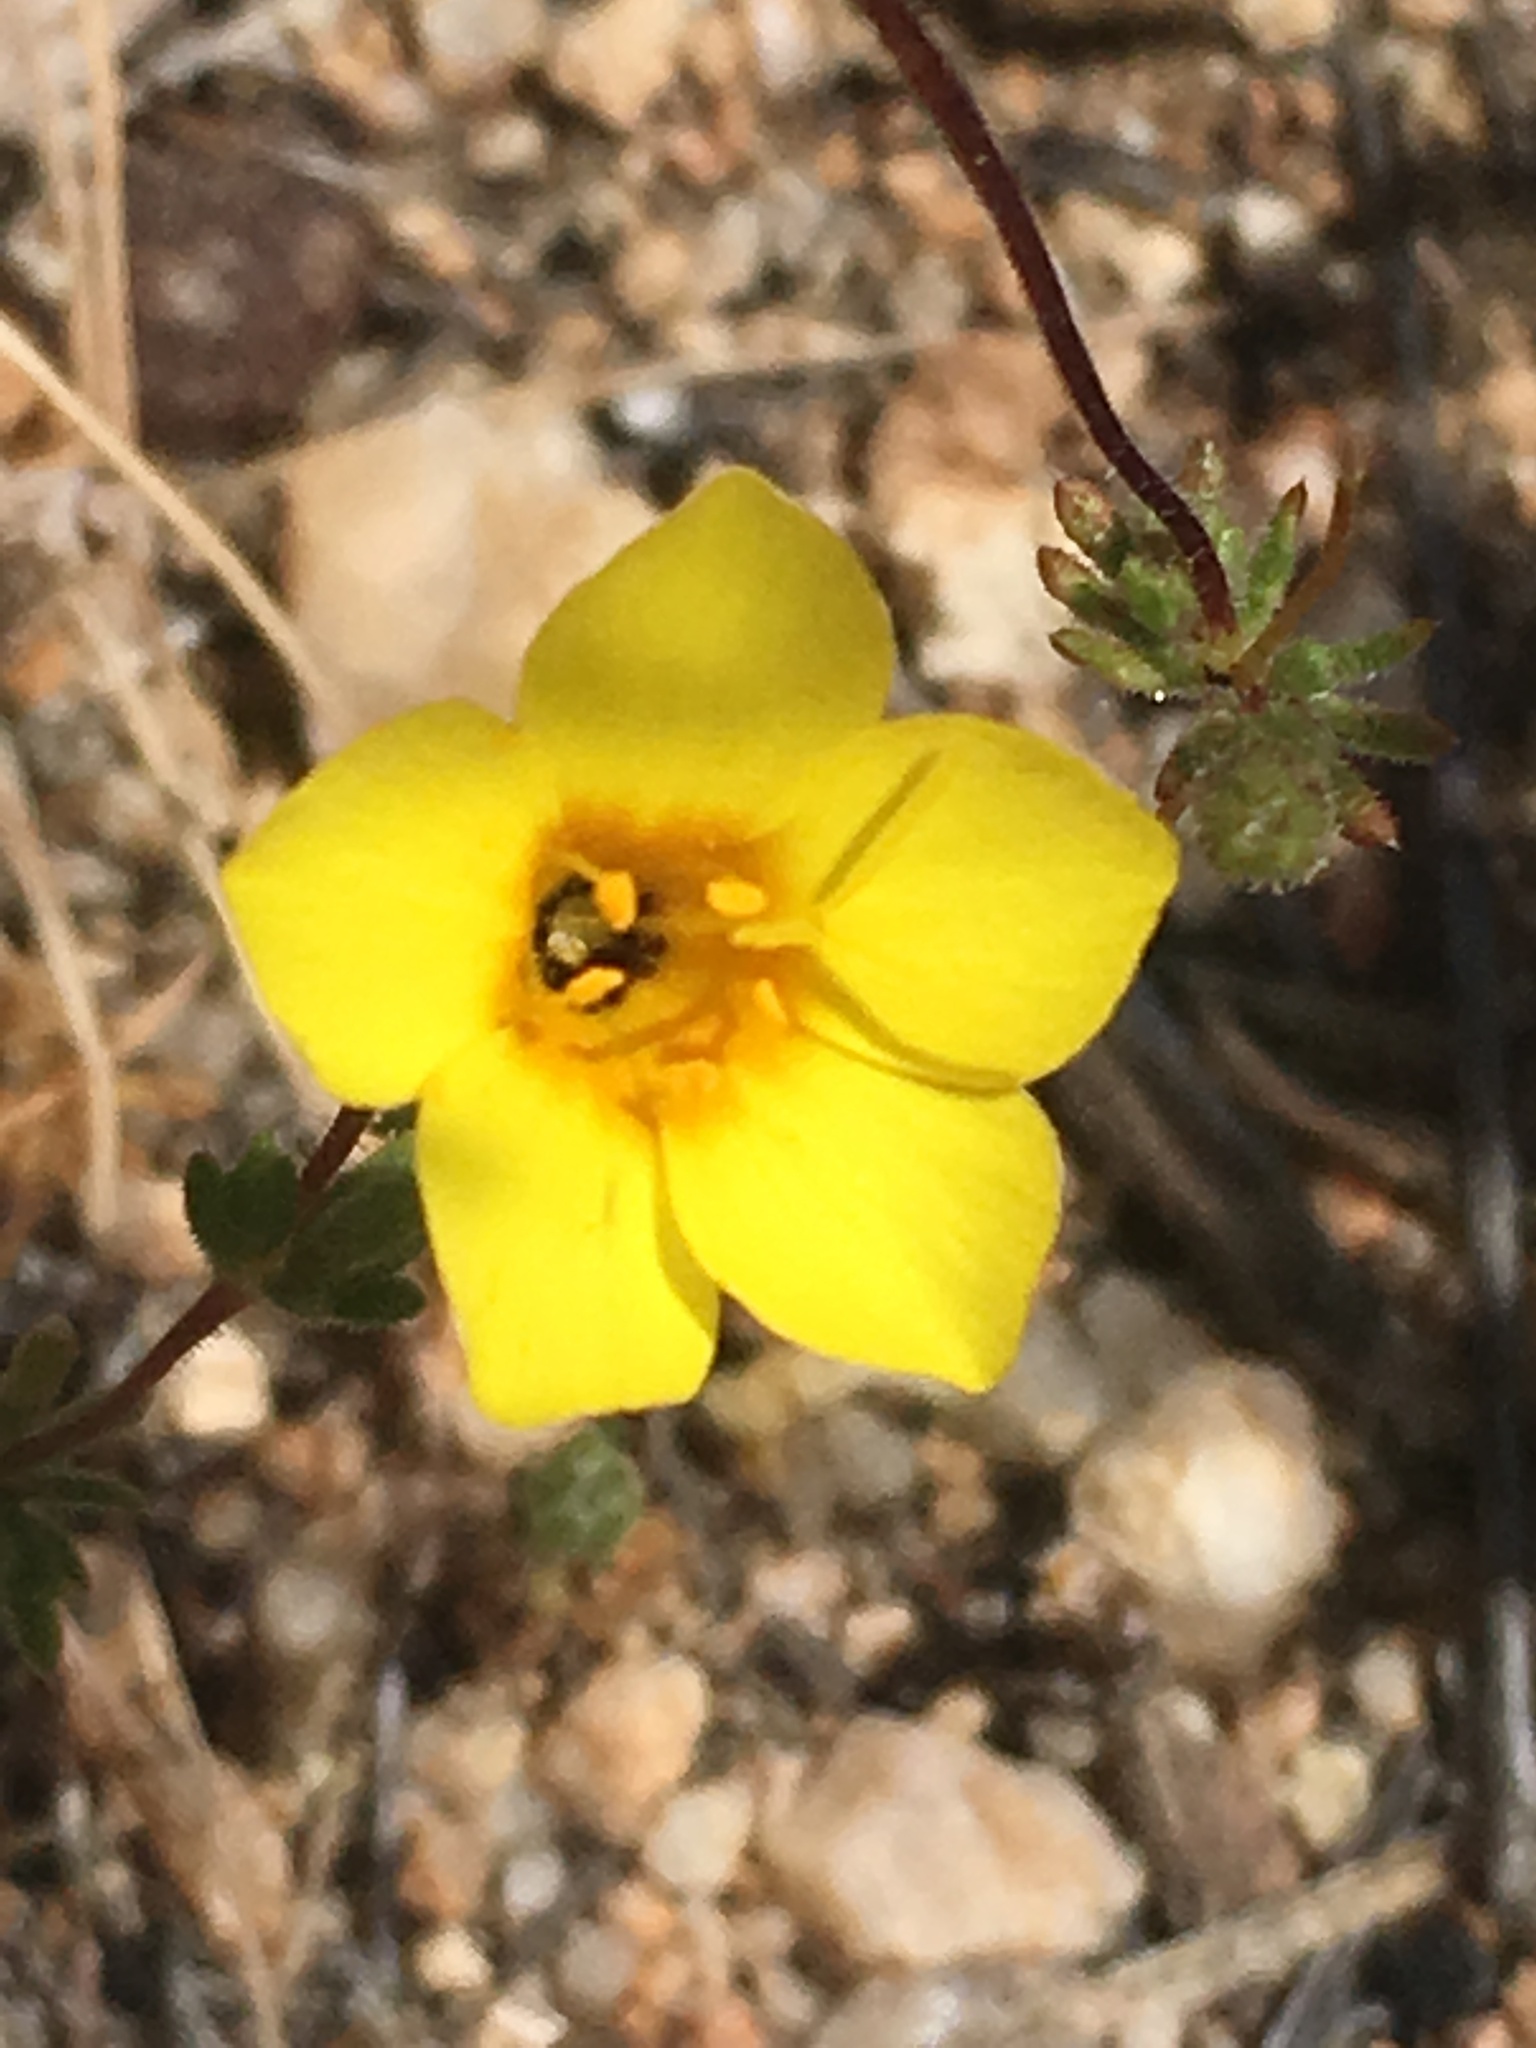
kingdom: Plantae
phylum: Tracheophyta
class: Magnoliopsida
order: Ericales
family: Polemoniaceae
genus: Leptosiphon
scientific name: Leptosiphon chrysanthus
